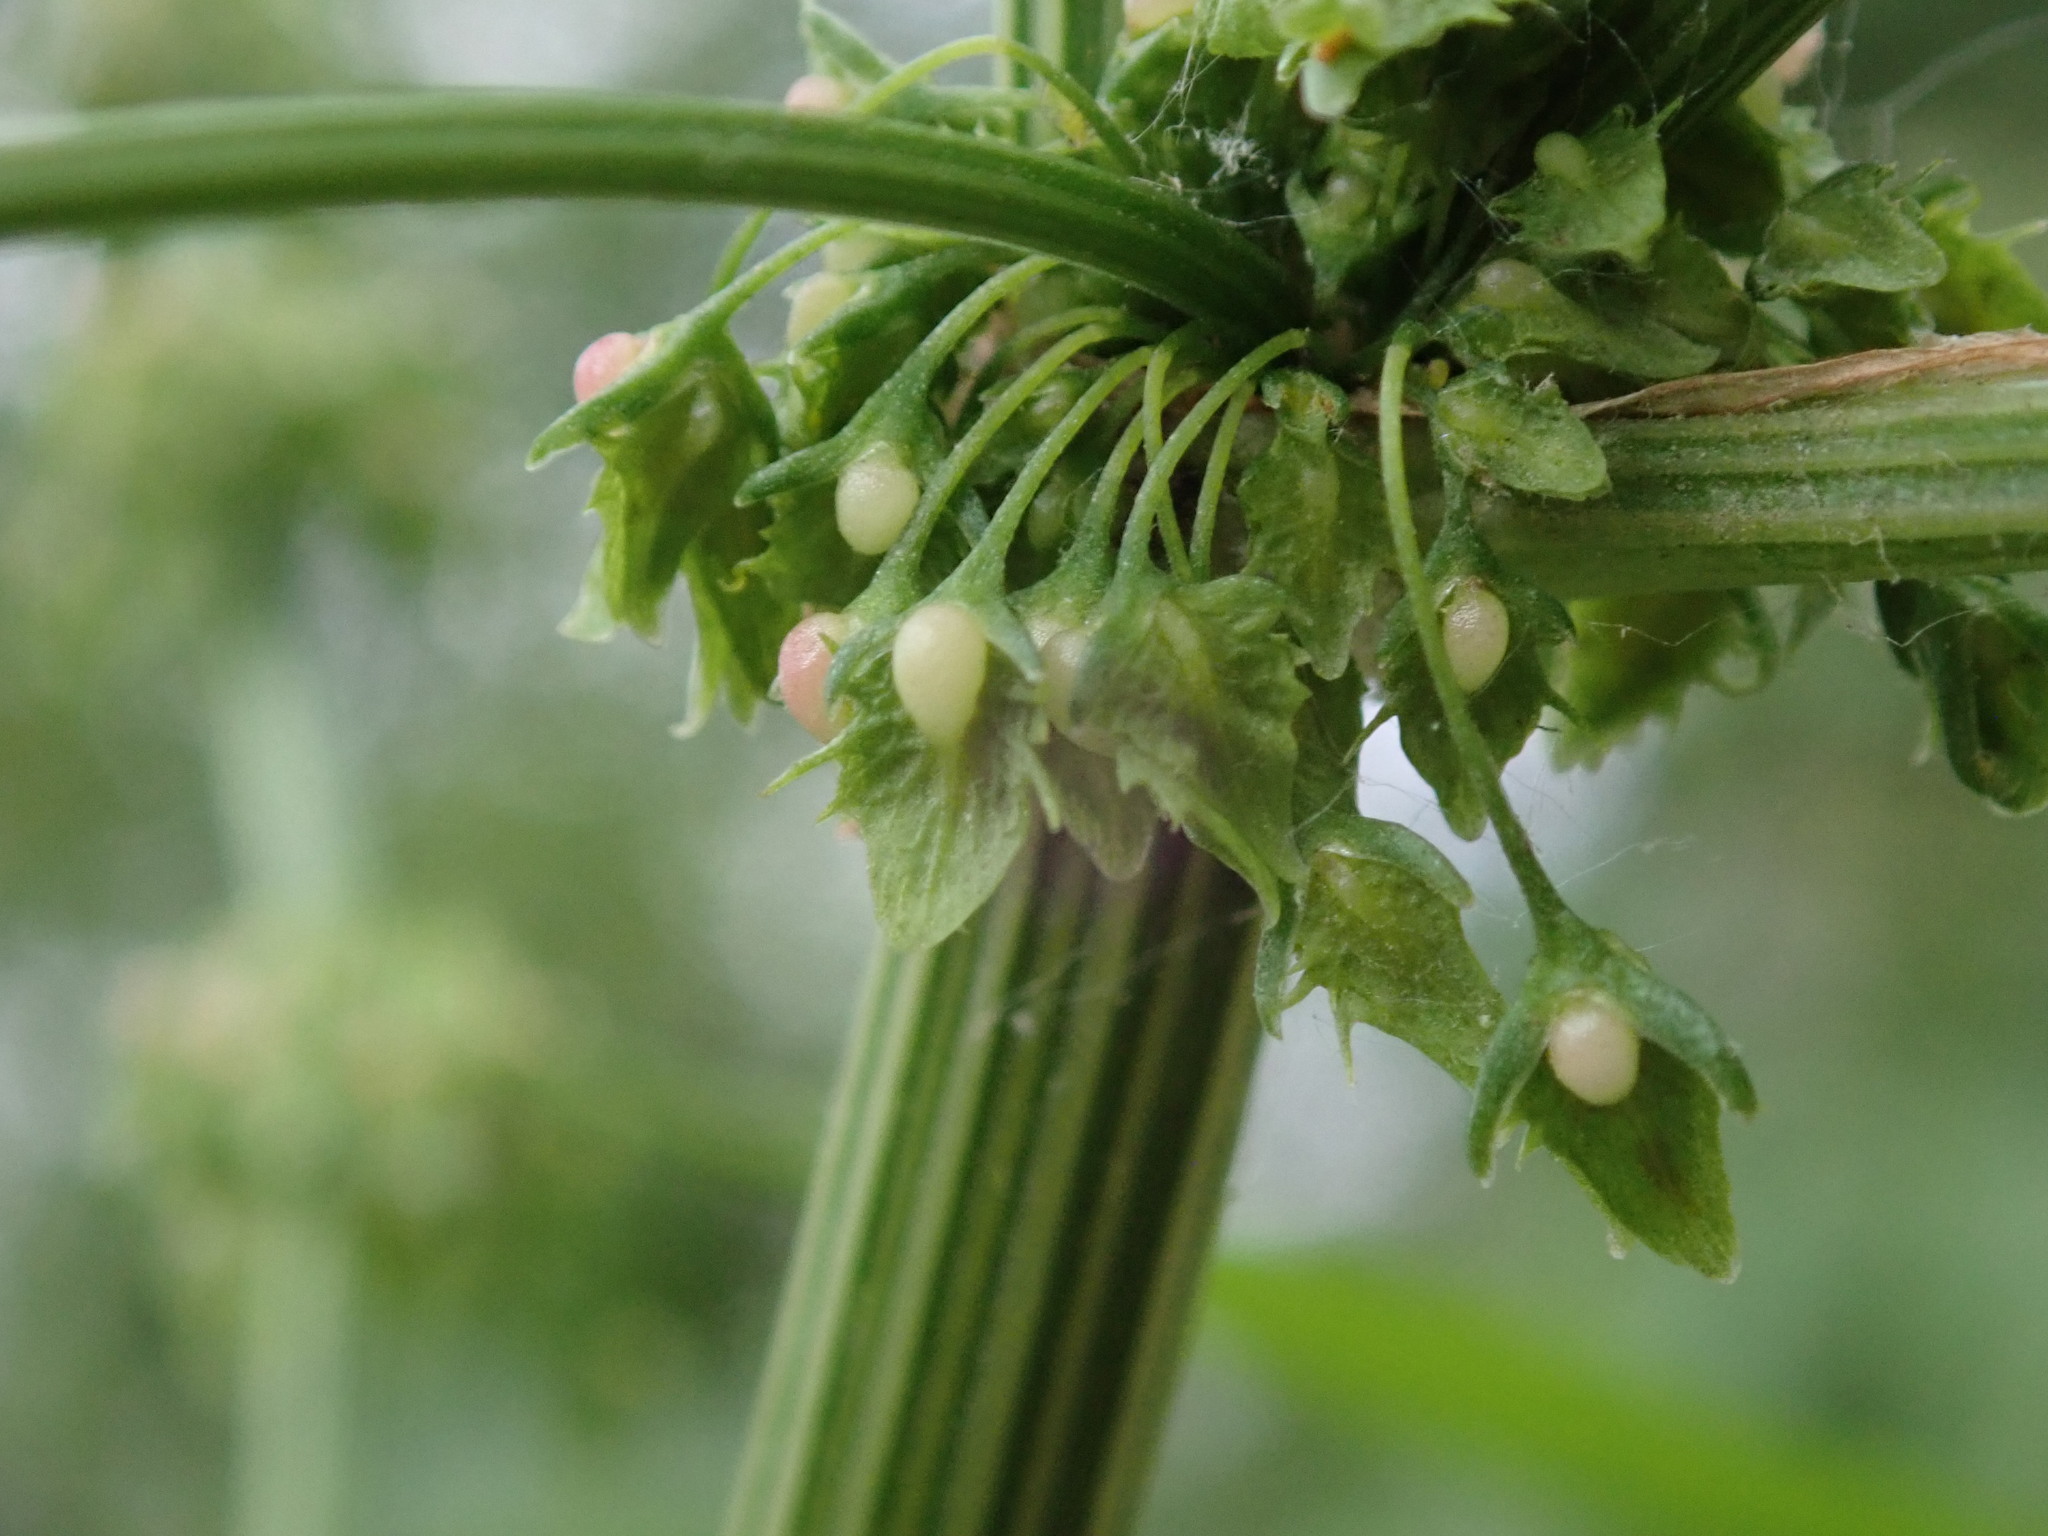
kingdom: Plantae
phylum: Tracheophyta
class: Magnoliopsida
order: Caryophyllales
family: Polygonaceae
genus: Rumex
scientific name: Rumex obtusifolius
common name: Bitter dock
